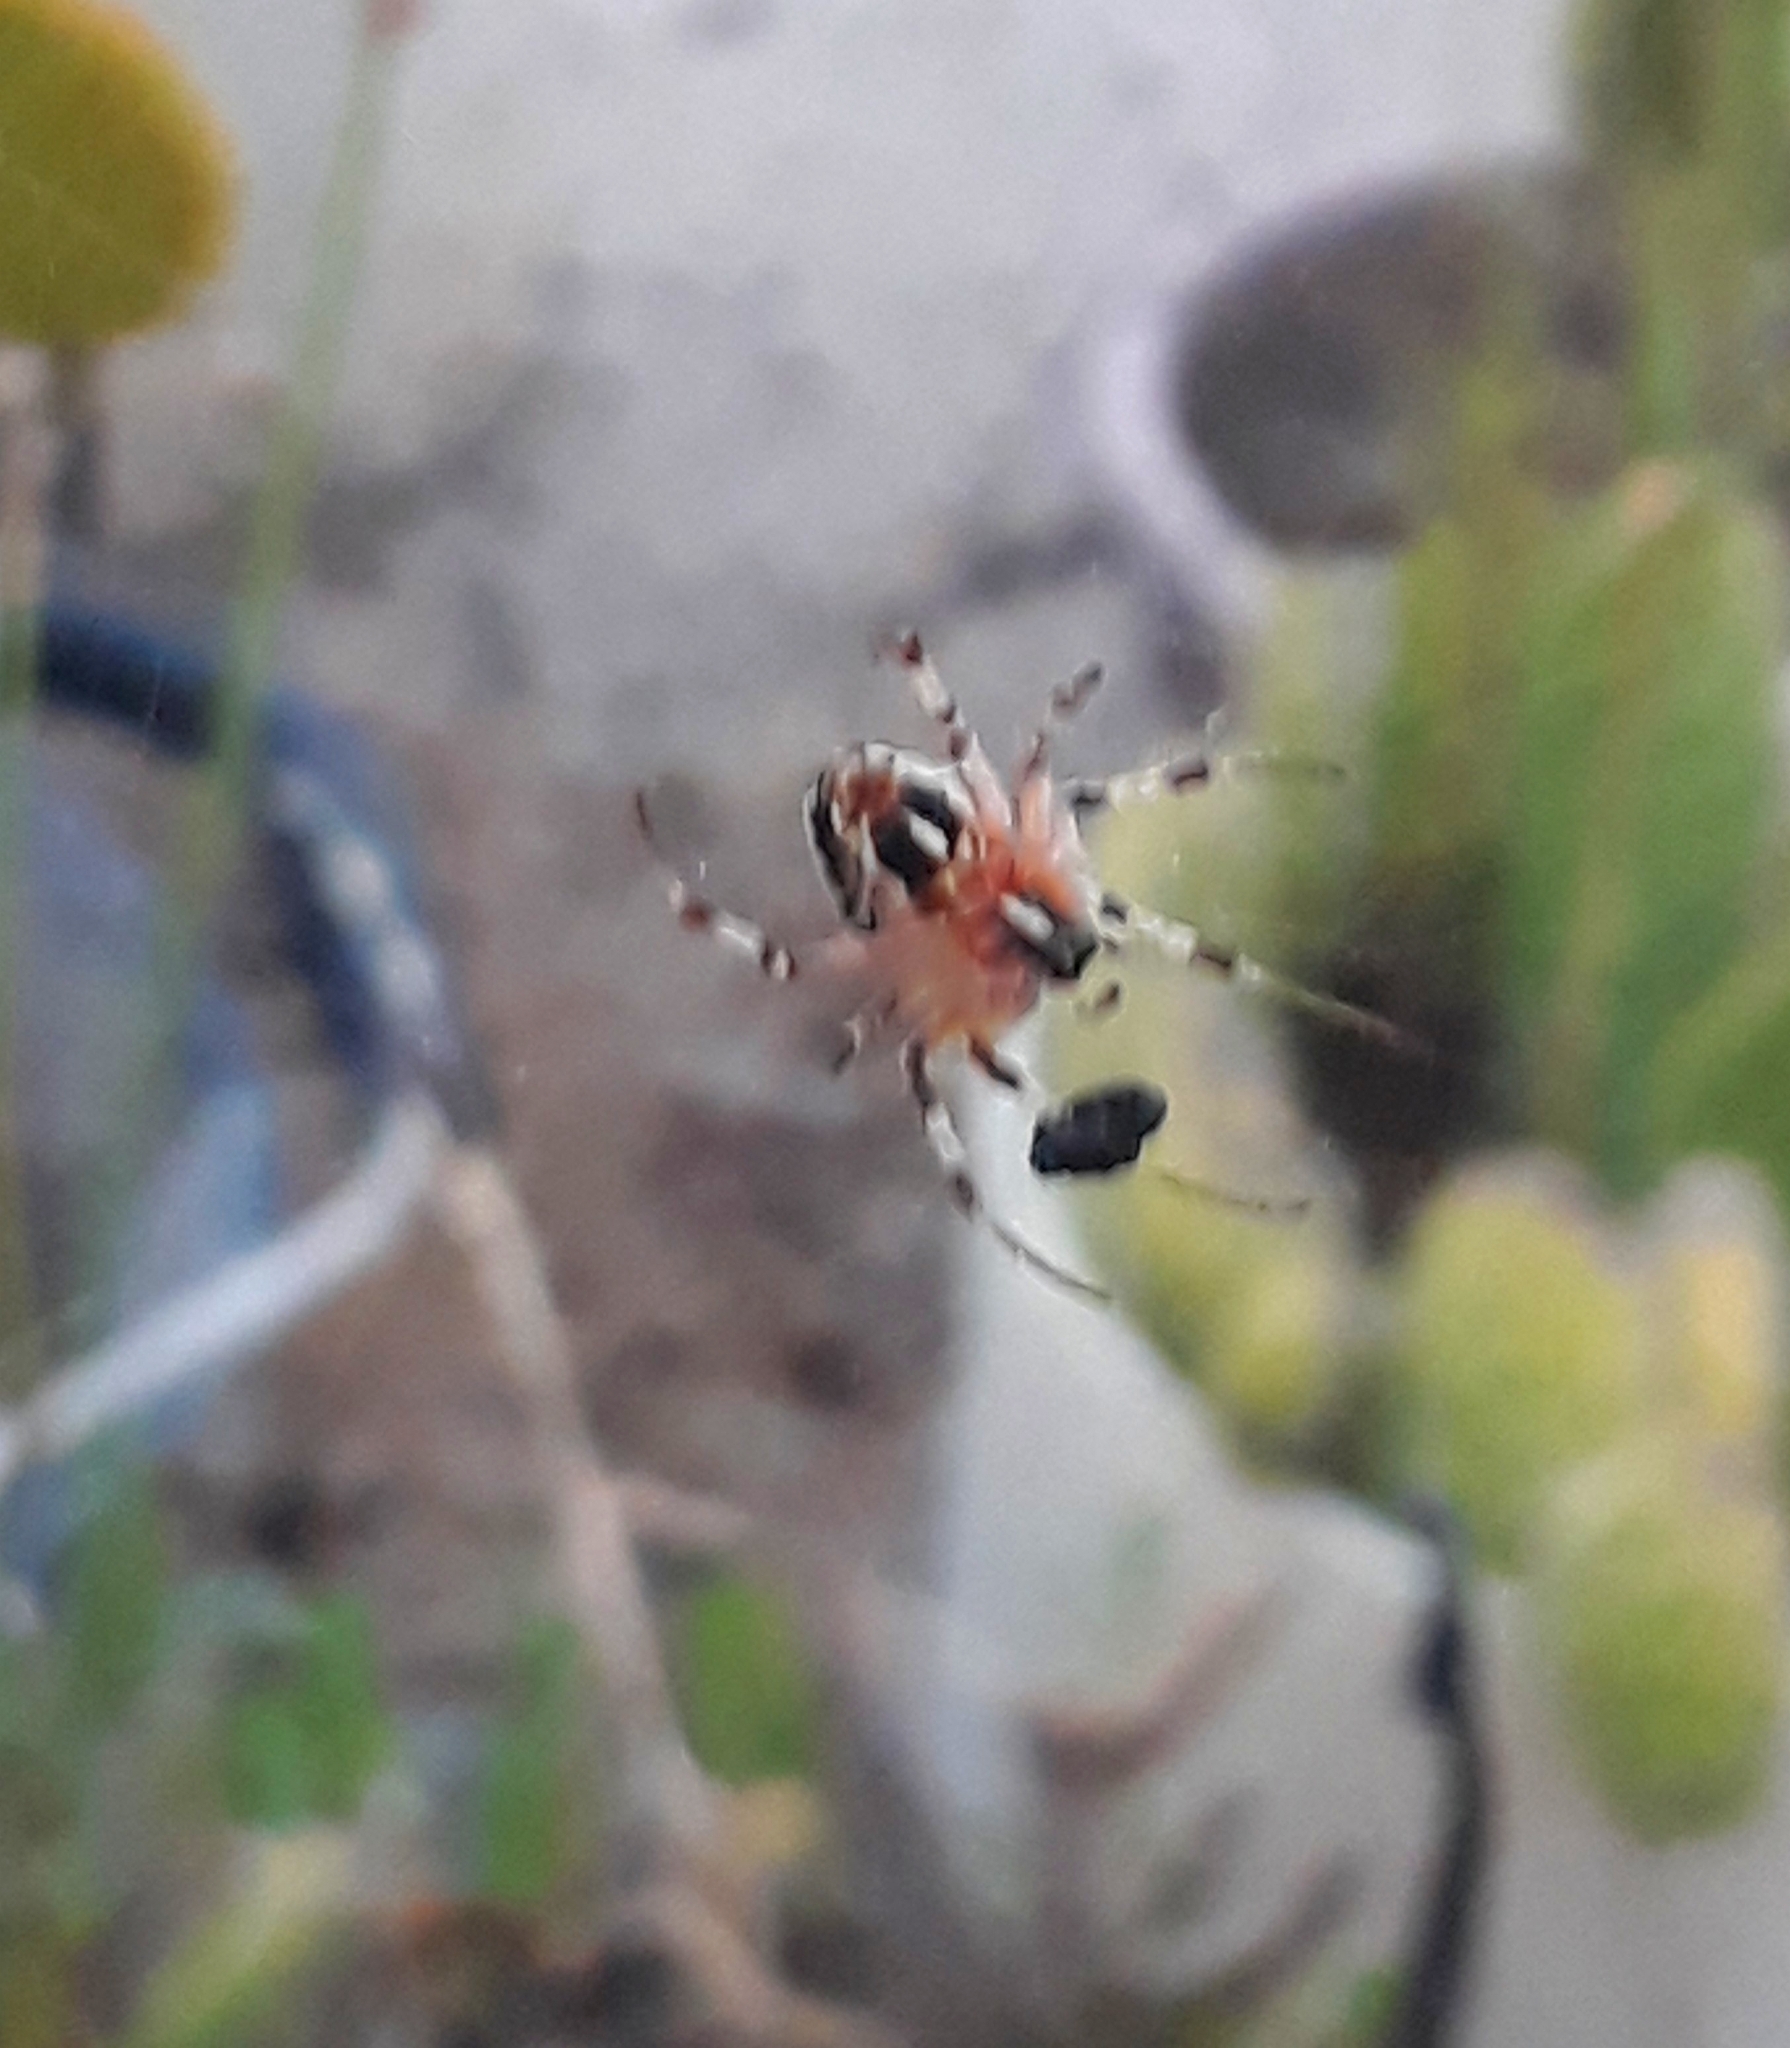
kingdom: Animalia
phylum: Arthropoda
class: Arachnida
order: Araneae
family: Araneidae
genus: Metepeira
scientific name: Metepeira
